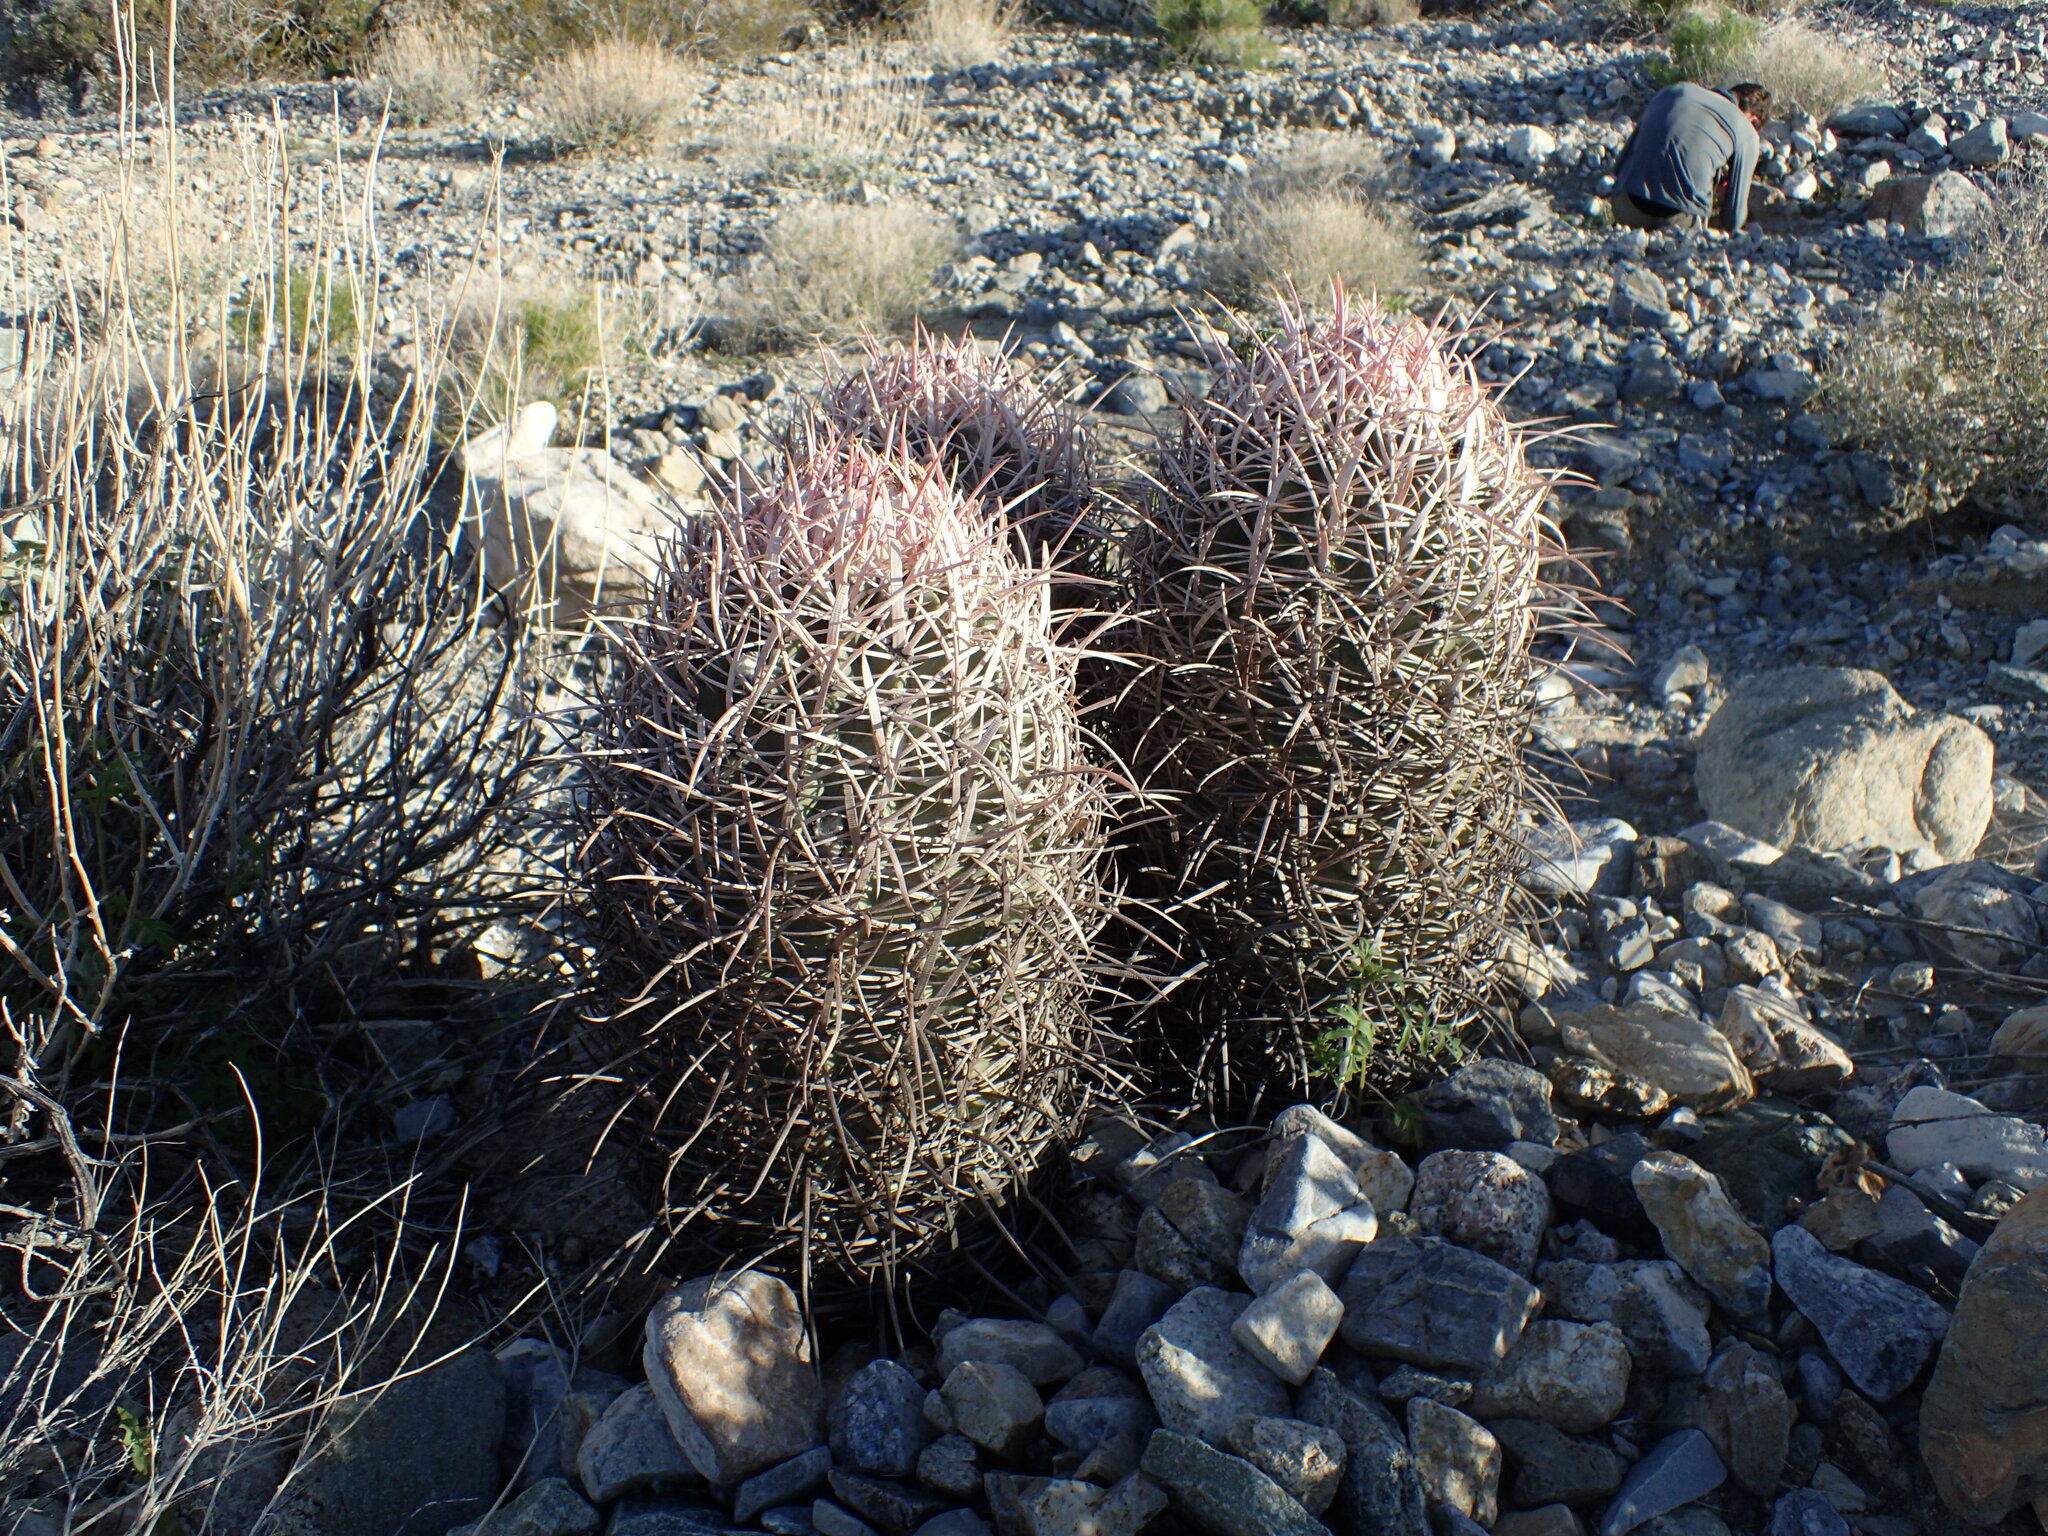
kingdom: Plantae
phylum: Tracheophyta
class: Magnoliopsida
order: Caryophyllales
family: Cactaceae
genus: Echinocactus
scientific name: Echinocactus polycephalus
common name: Cottontop cactus
